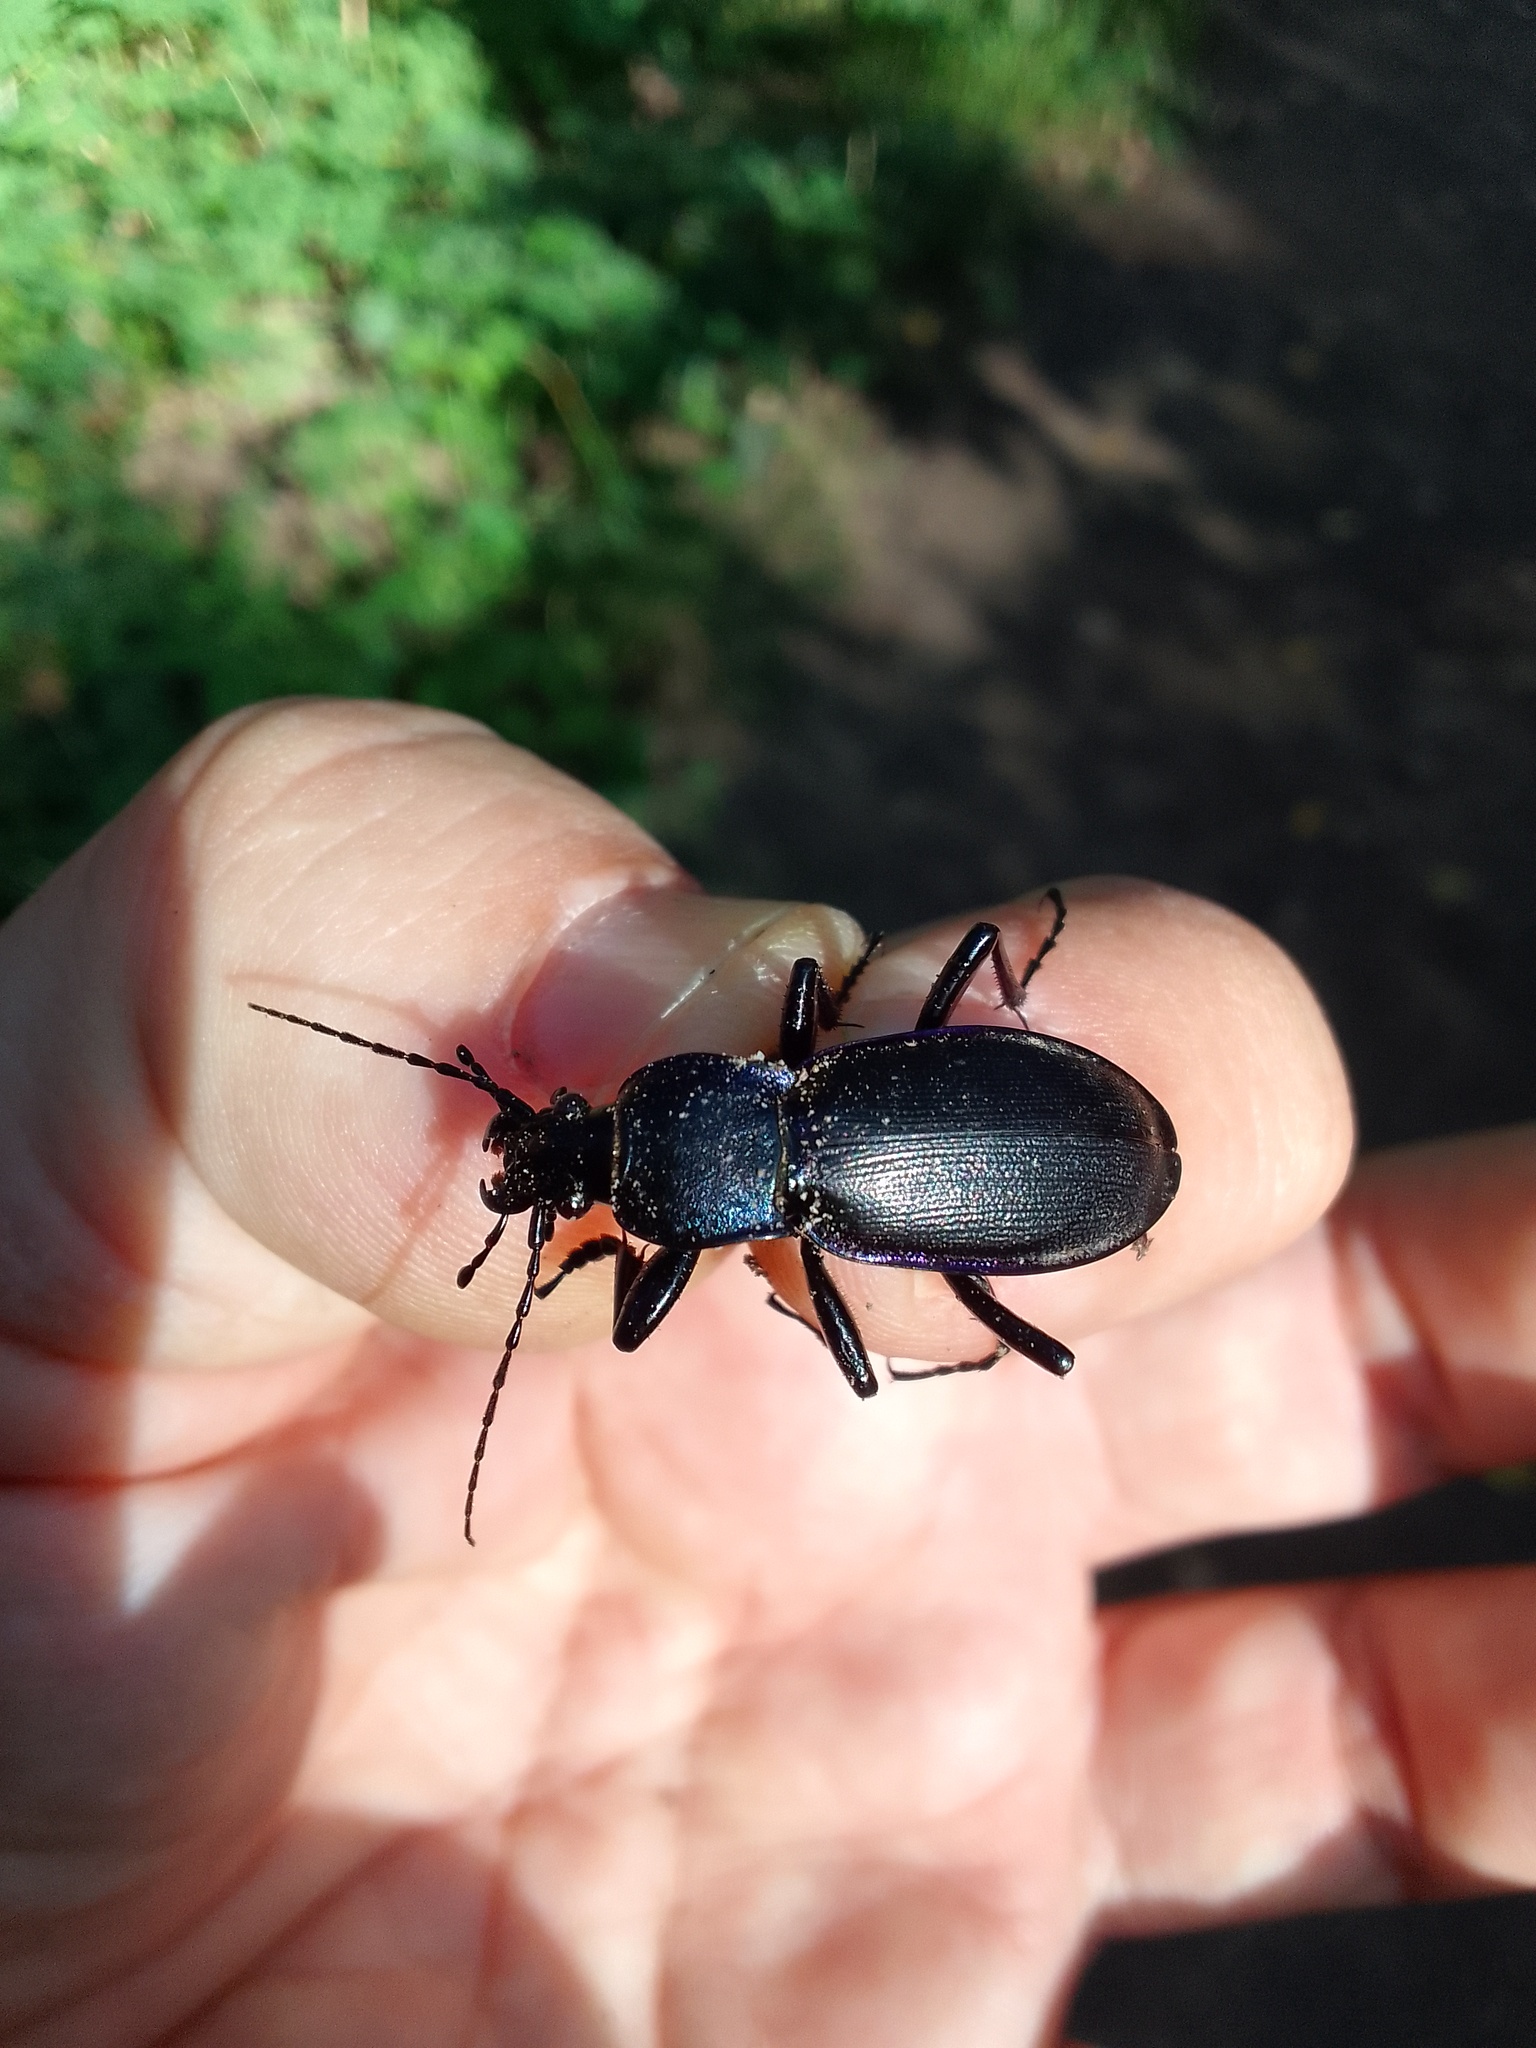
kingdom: Animalia
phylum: Arthropoda
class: Insecta
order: Coleoptera
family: Carabidae
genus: Carabus
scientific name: Carabus purpurascens
